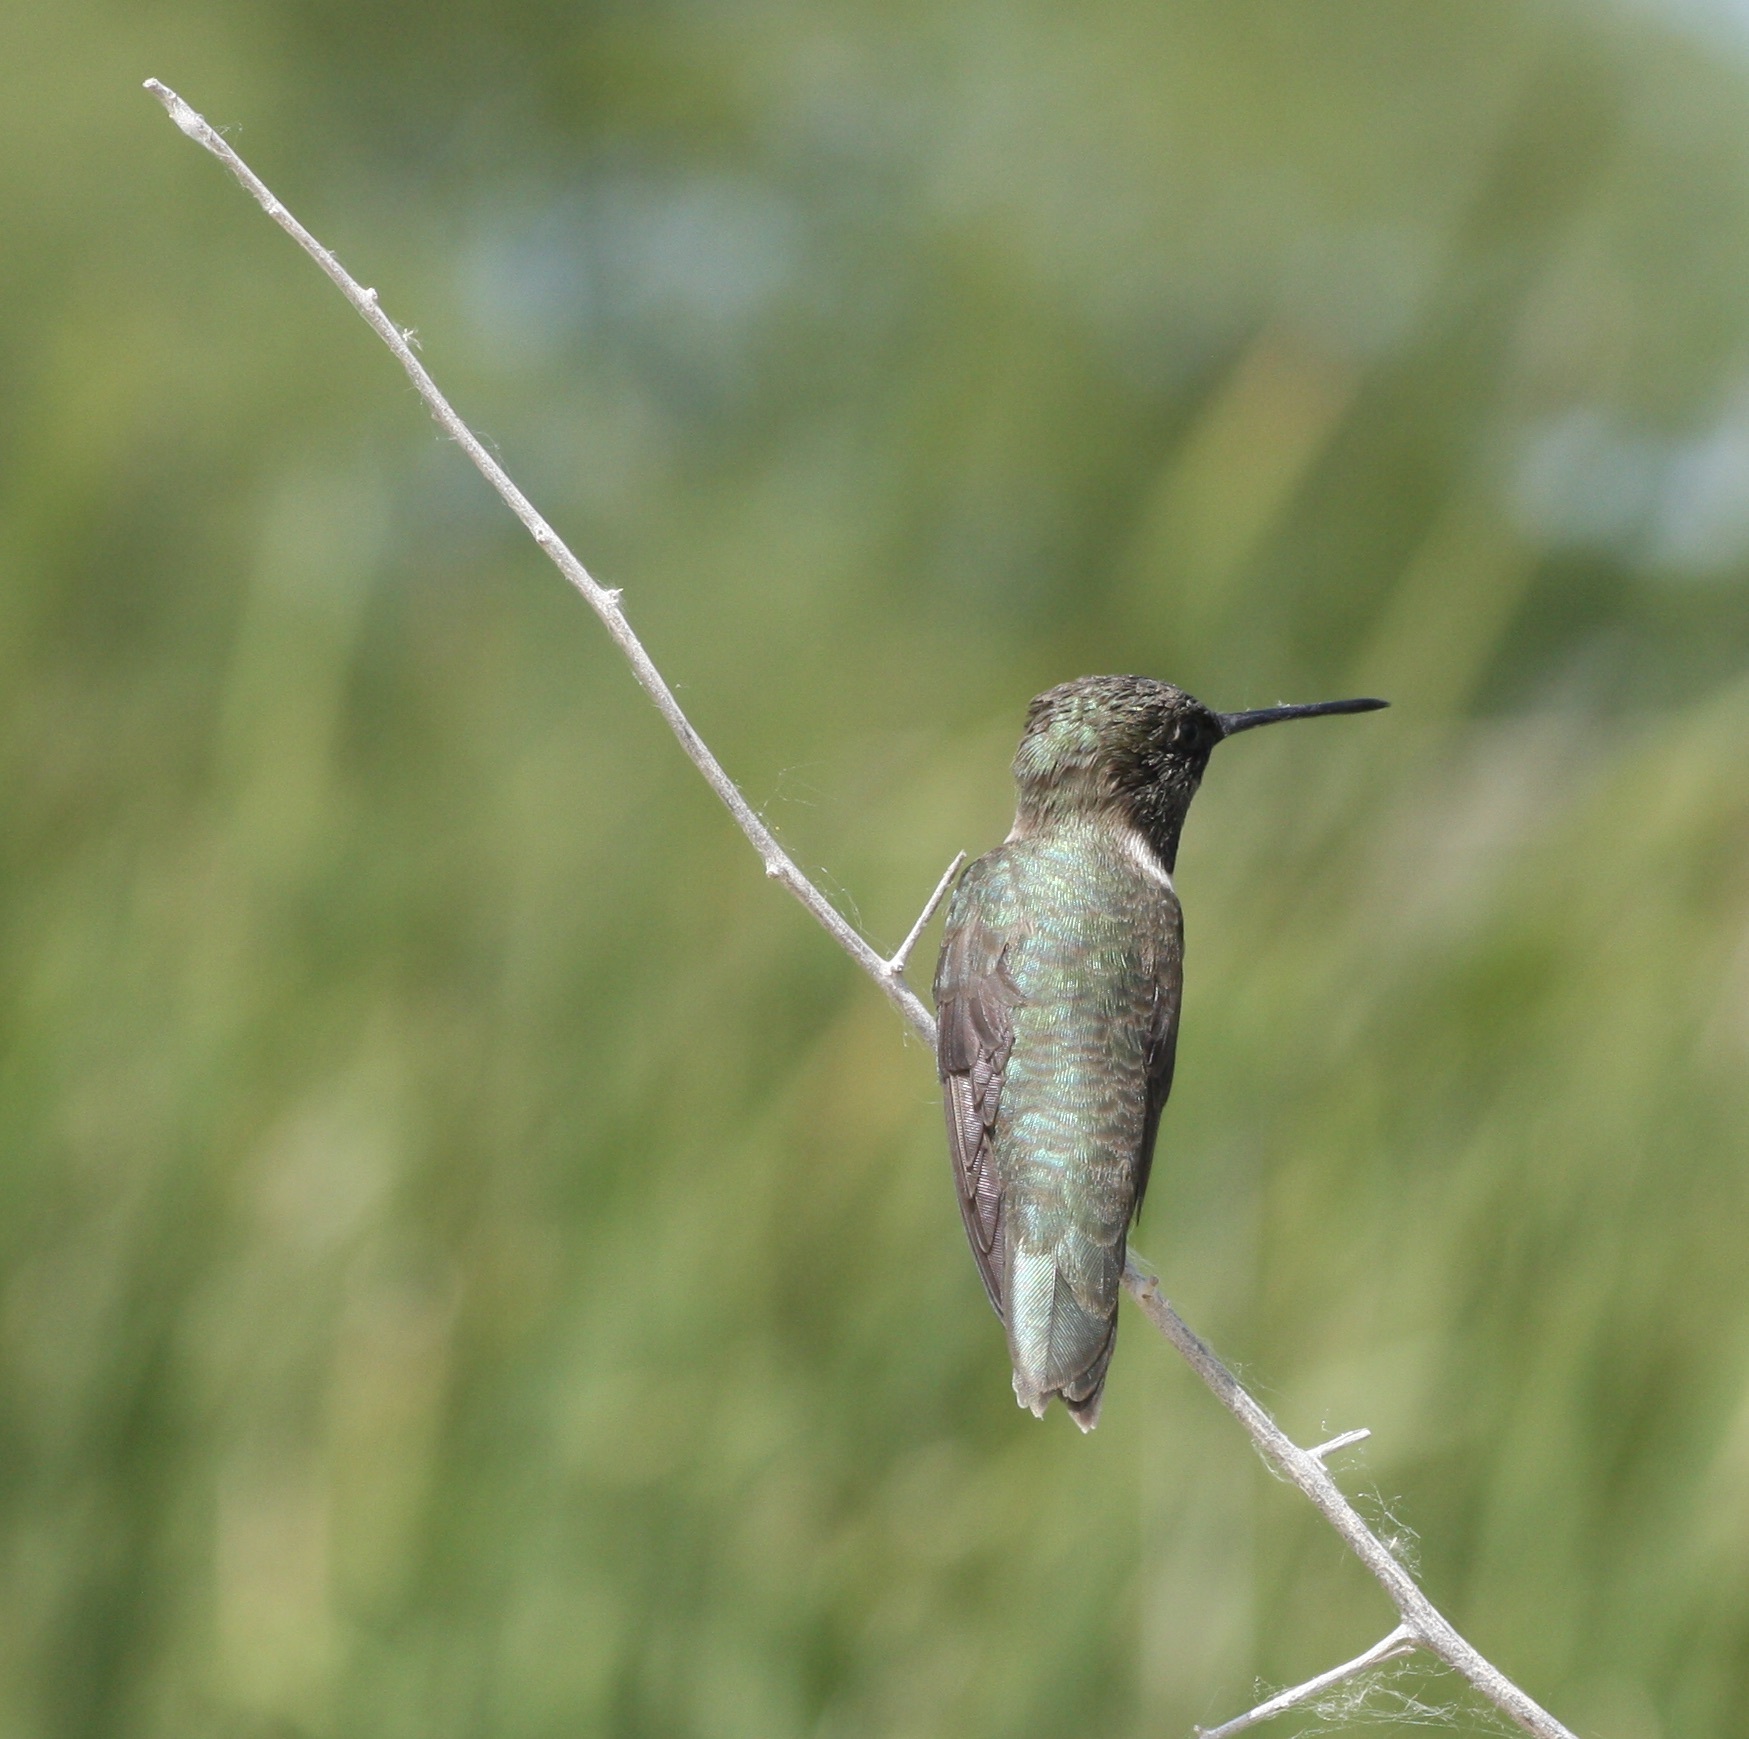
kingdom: Animalia
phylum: Chordata
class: Aves
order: Apodiformes
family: Trochilidae
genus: Archilochus
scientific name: Archilochus alexandri
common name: Black-chinned hummingbird
